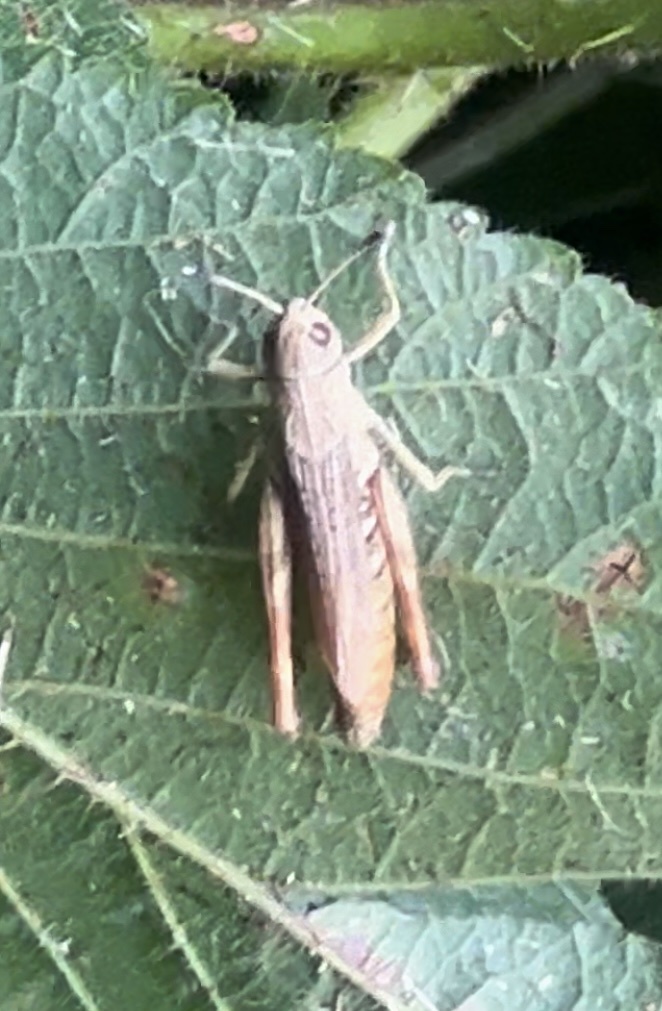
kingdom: Animalia
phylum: Arthropoda
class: Insecta
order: Orthoptera
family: Acrididae
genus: Gomphocerippus
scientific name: Gomphocerippus rufus
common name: Rufous grasshopper
